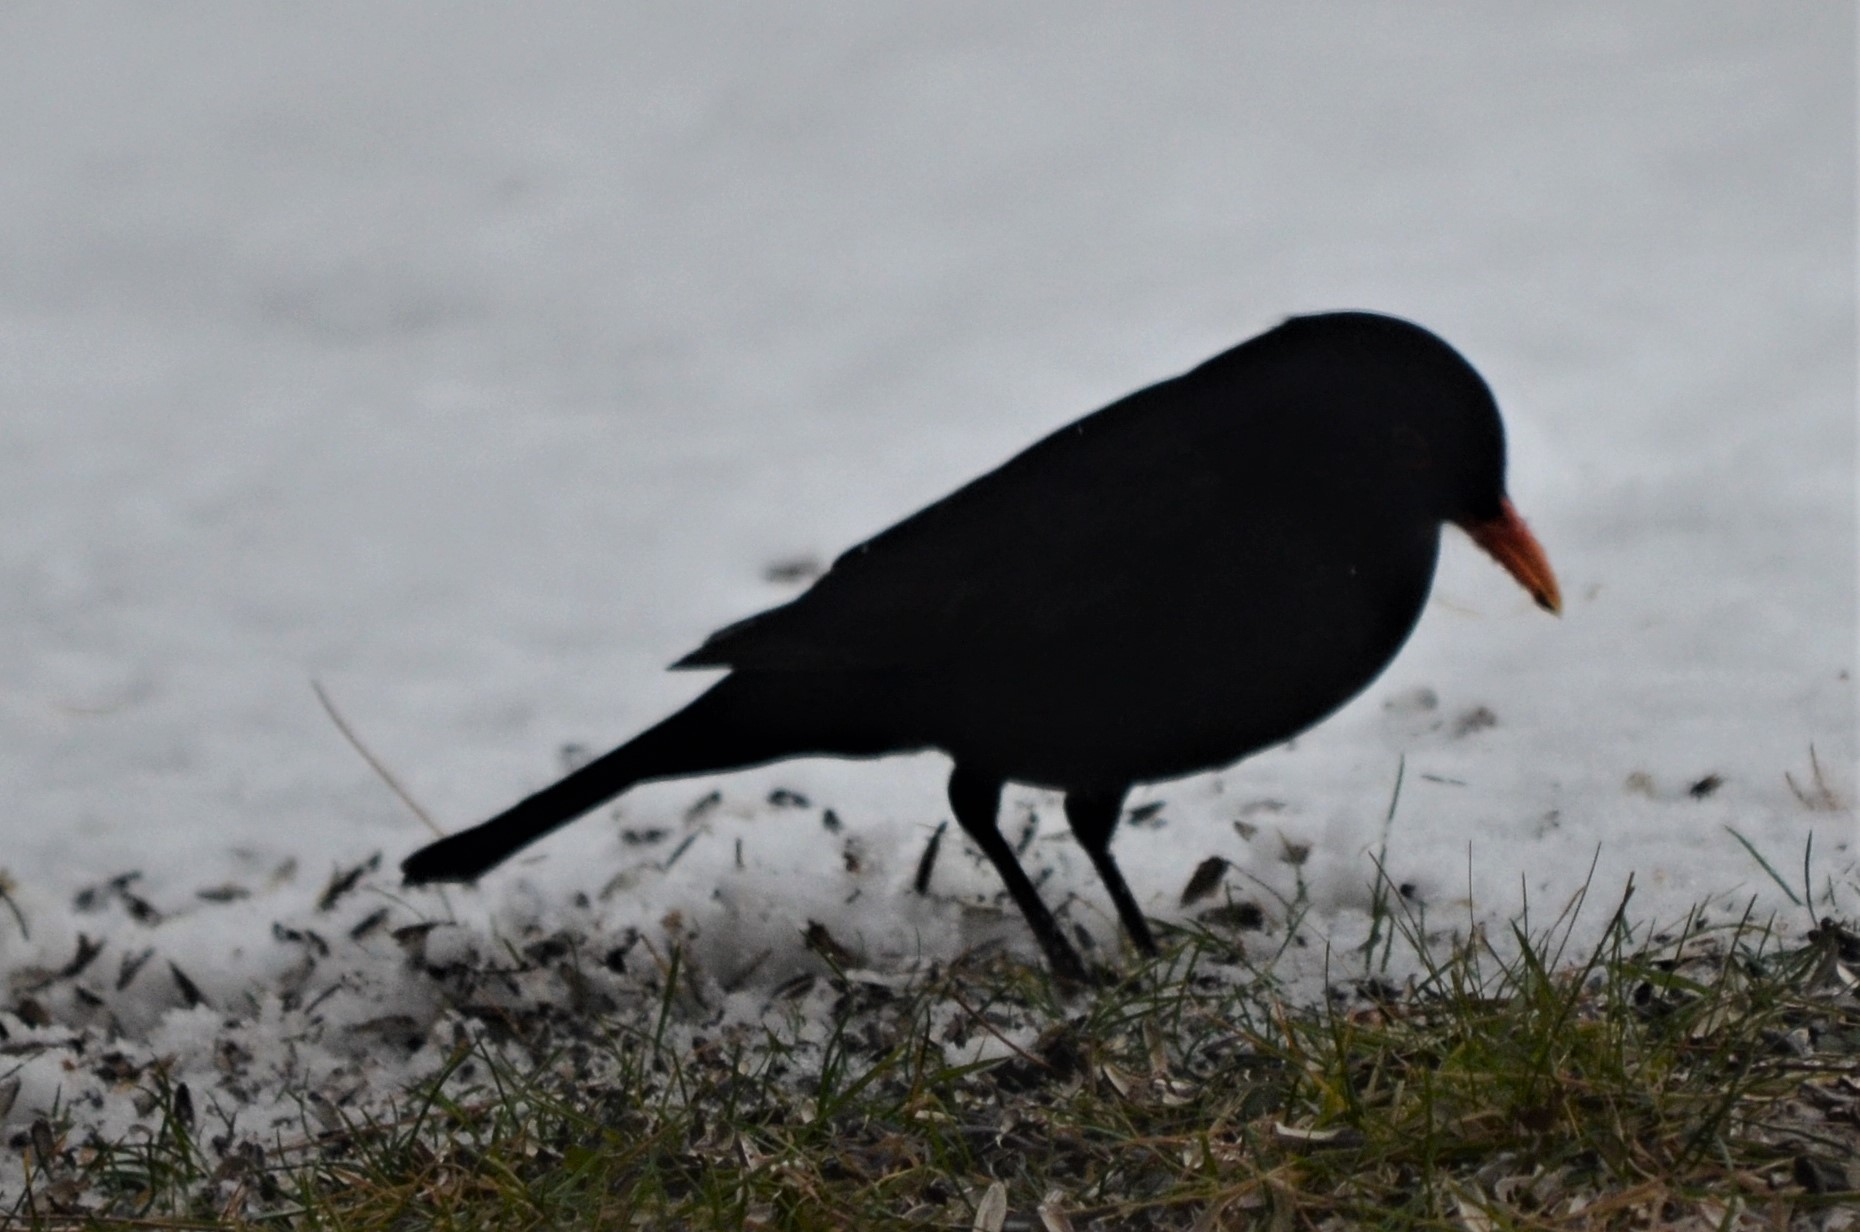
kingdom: Animalia
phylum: Chordata
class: Aves
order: Passeriformes
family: Turdidae
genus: Turdus
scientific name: Turdus merula
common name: Common blackbird
